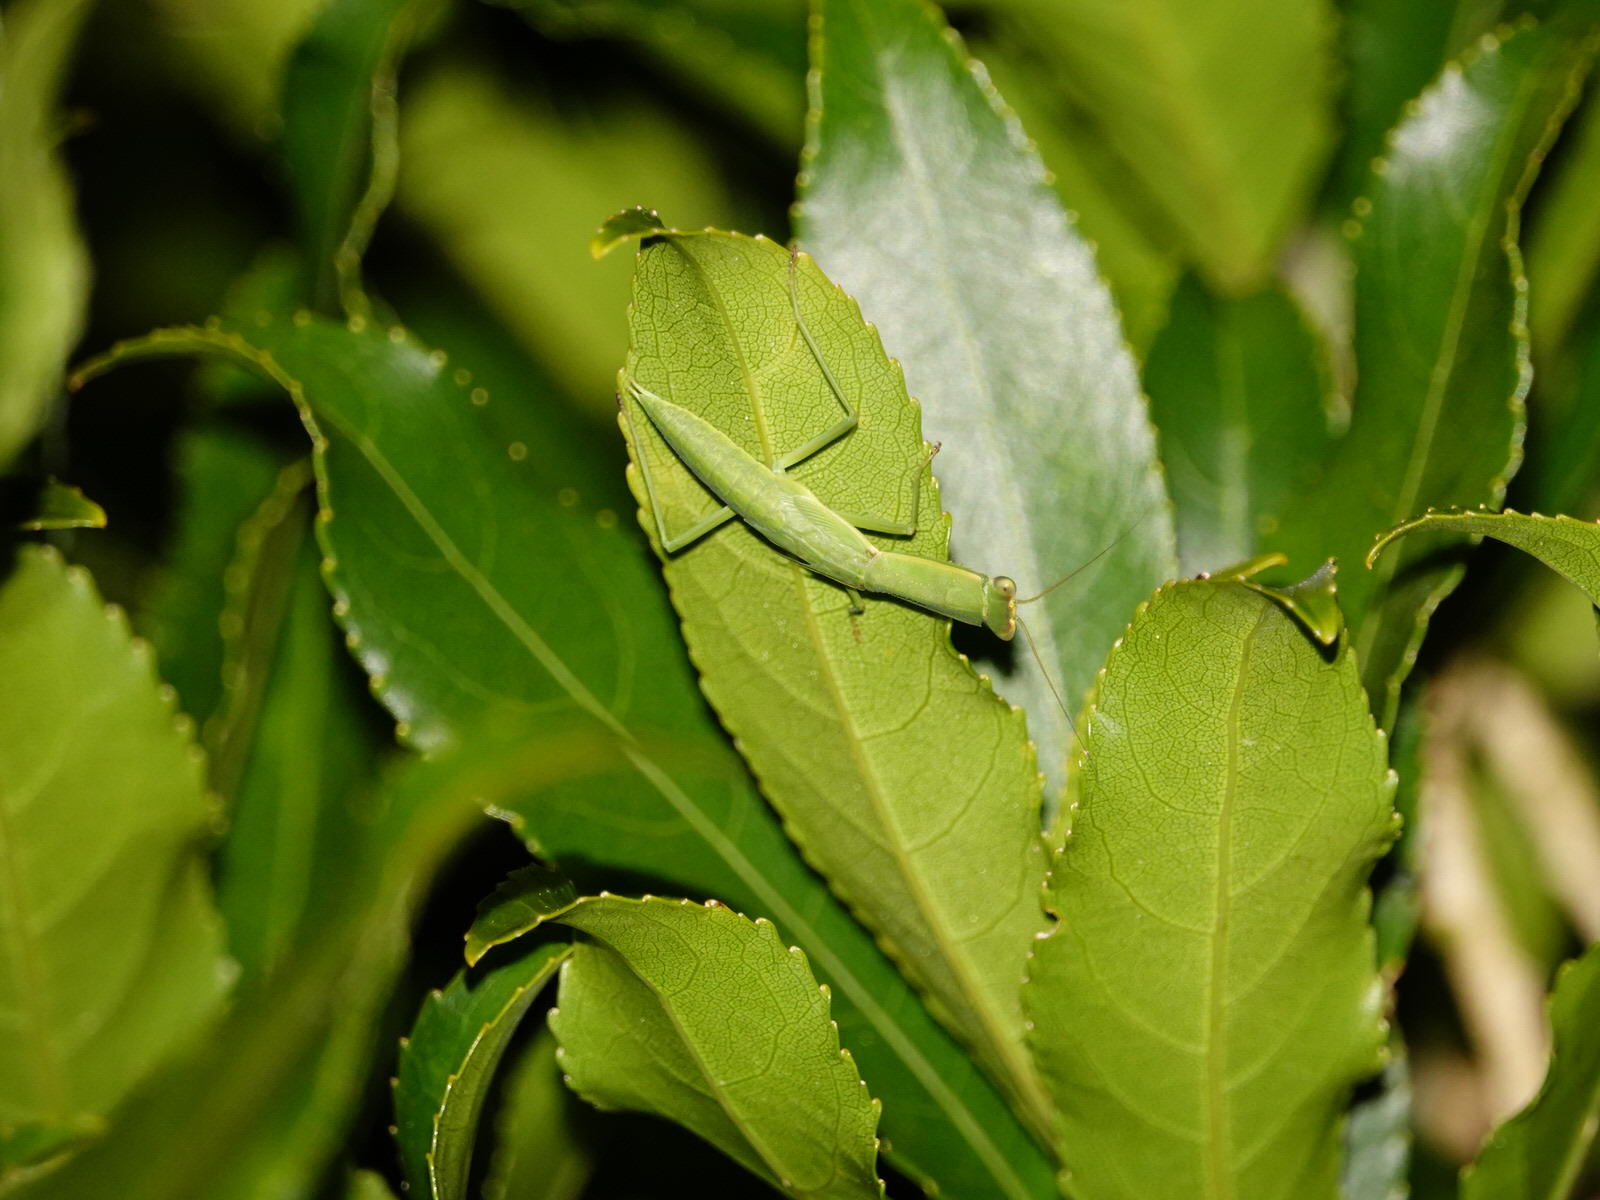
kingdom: Animalia
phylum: Arthropoda
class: Insecta
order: Mantodea
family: Mantidae
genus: Orthodera
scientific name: Orthodera novaezealandiae
